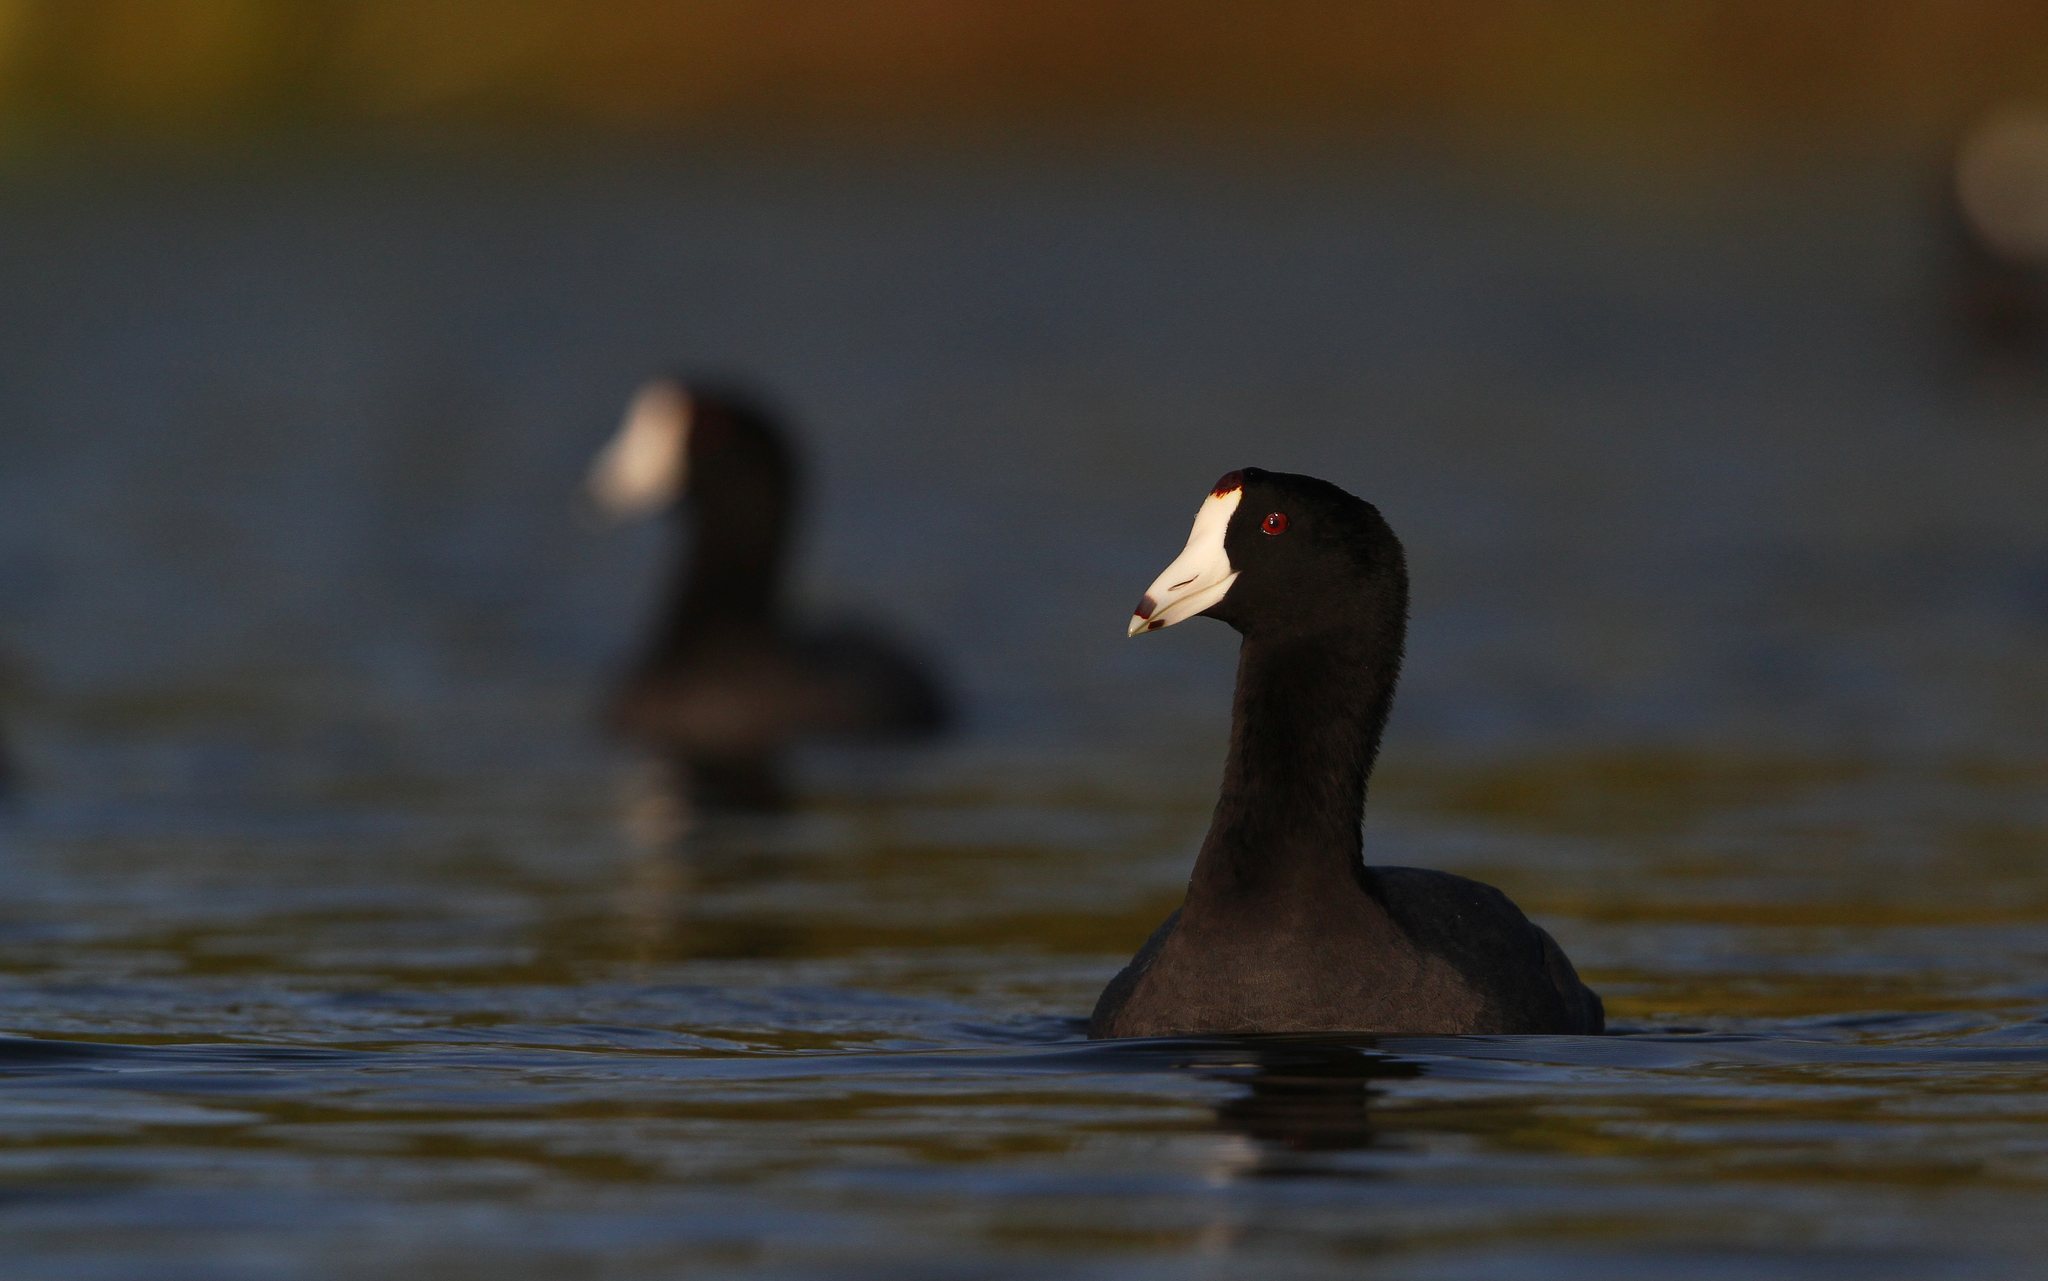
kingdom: Animalia
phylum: Chordata
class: Aves
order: Gruiformes
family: Rallidae
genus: Fulica
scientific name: Fulica americana
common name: American coot
